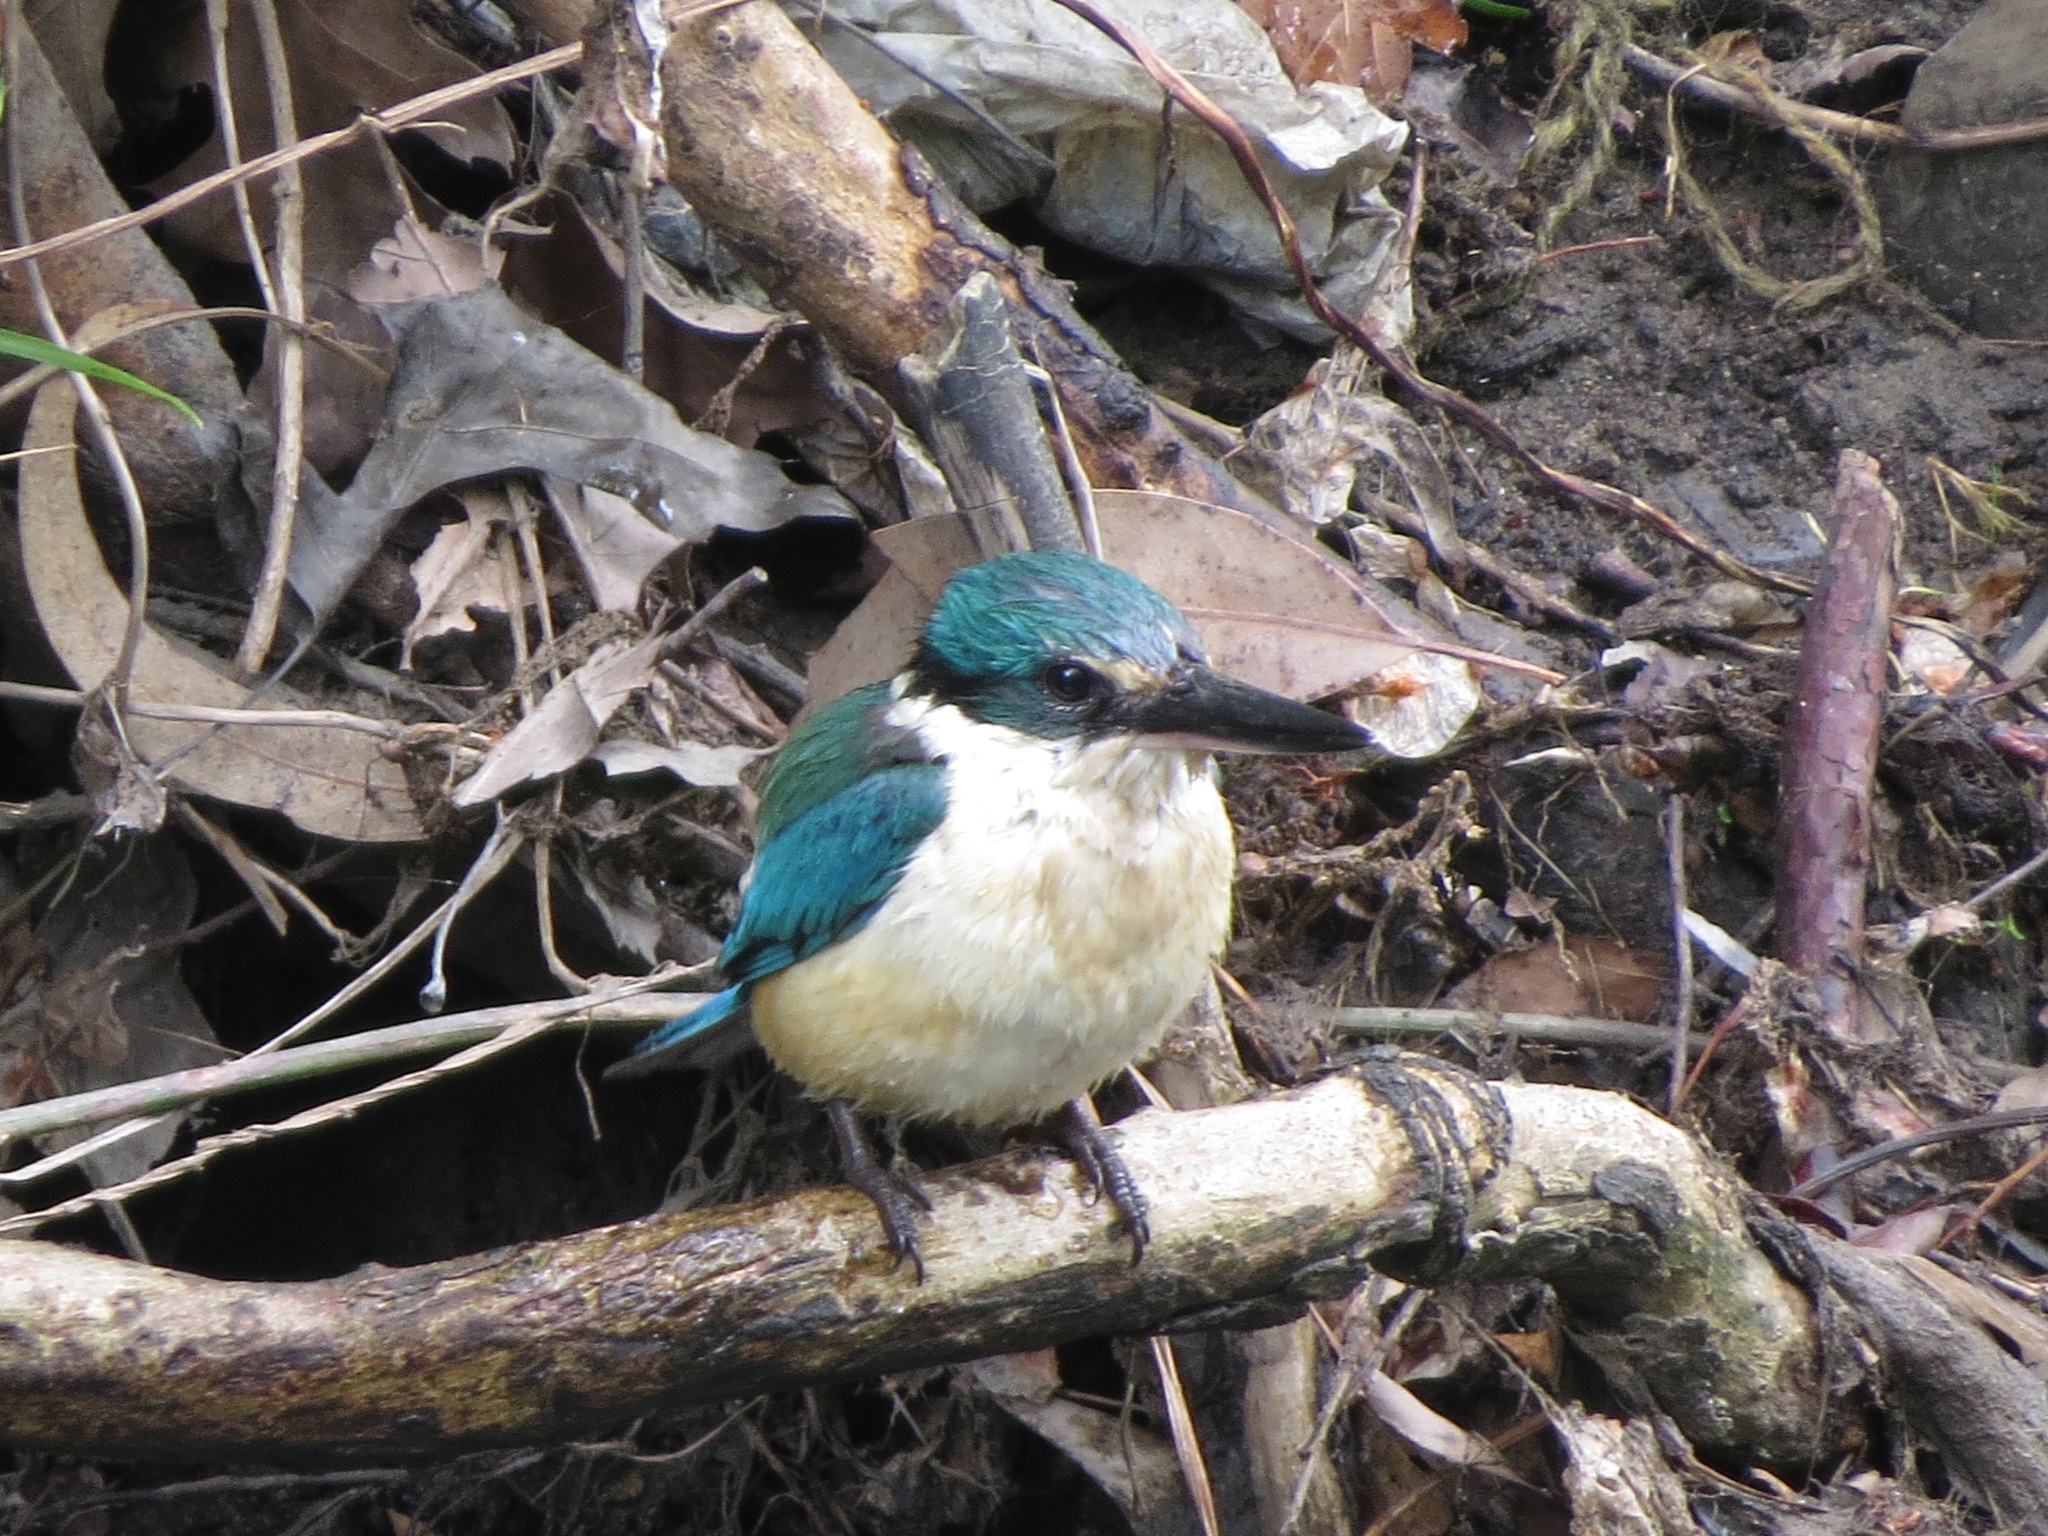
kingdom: Animalia
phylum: Chordata
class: Aves
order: Coraciiformes
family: Alcedinidae
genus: Todiramphus
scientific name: Todiramphus sanctus
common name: Sacred kingfisher
